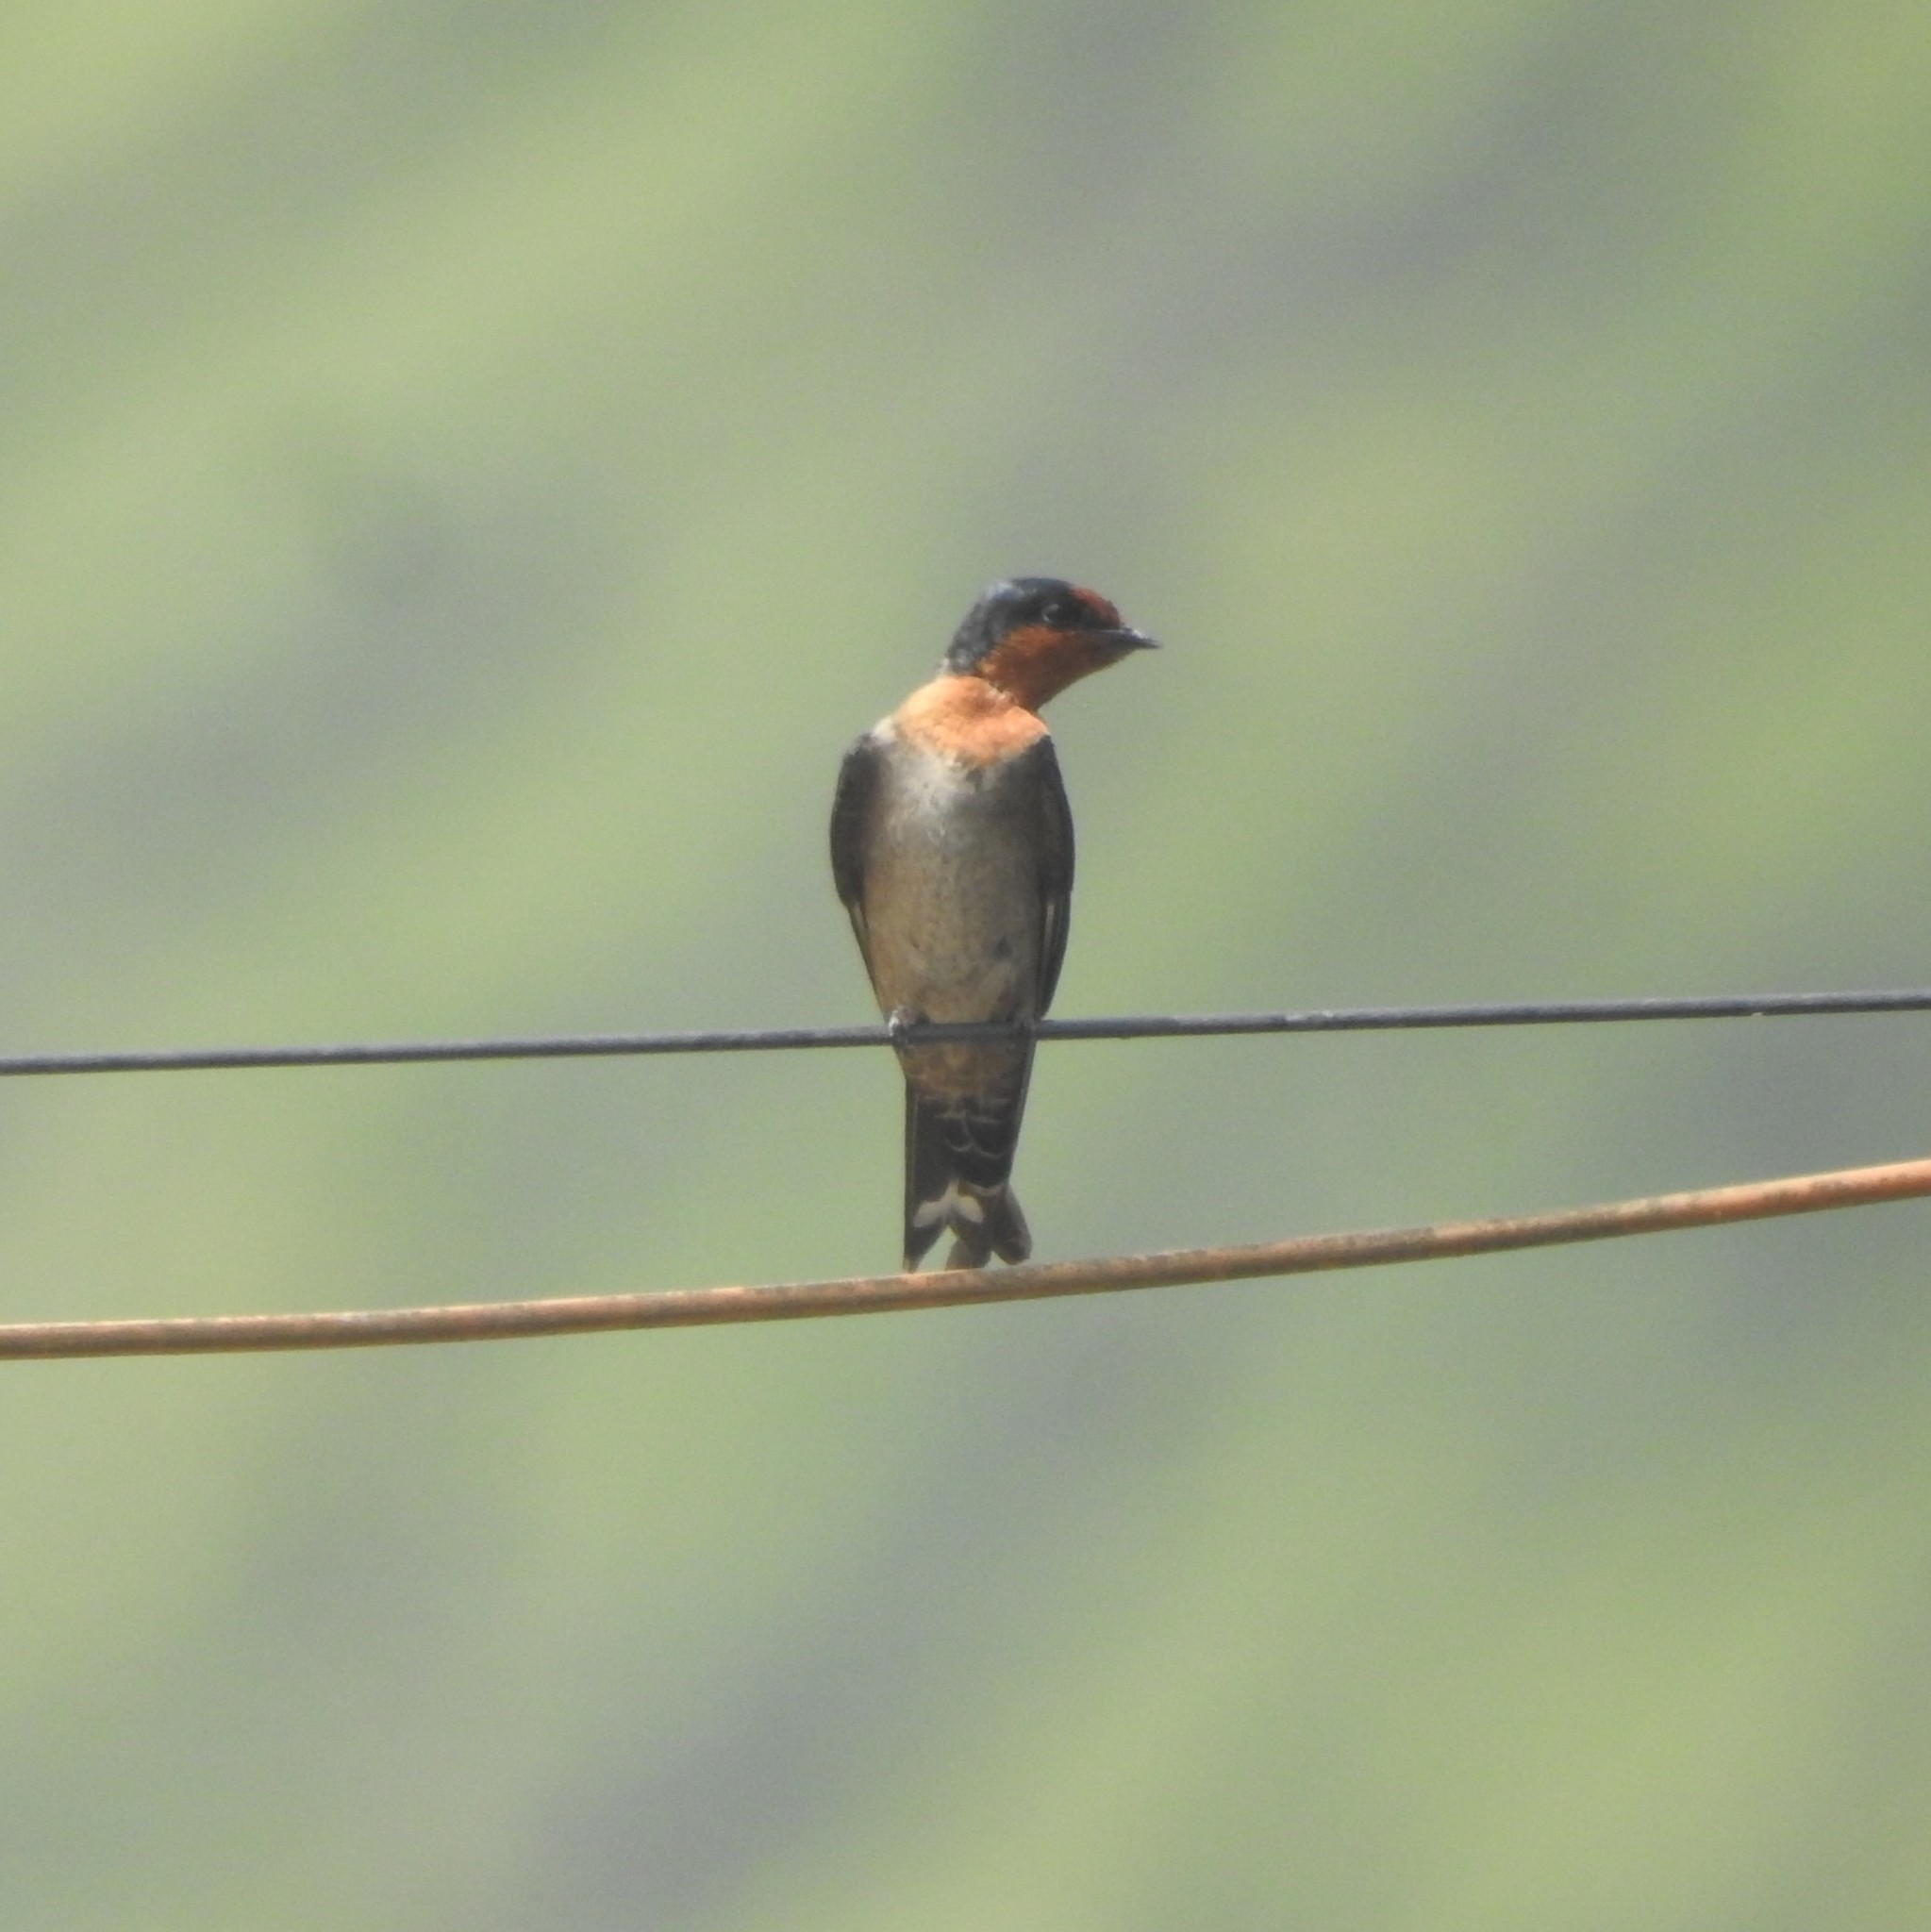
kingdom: Animalia
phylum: Chordata
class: Aves
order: Passeriformes
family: Hirundinidae
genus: Hirundo
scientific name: Hirundo domicola
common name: Hill swallow
